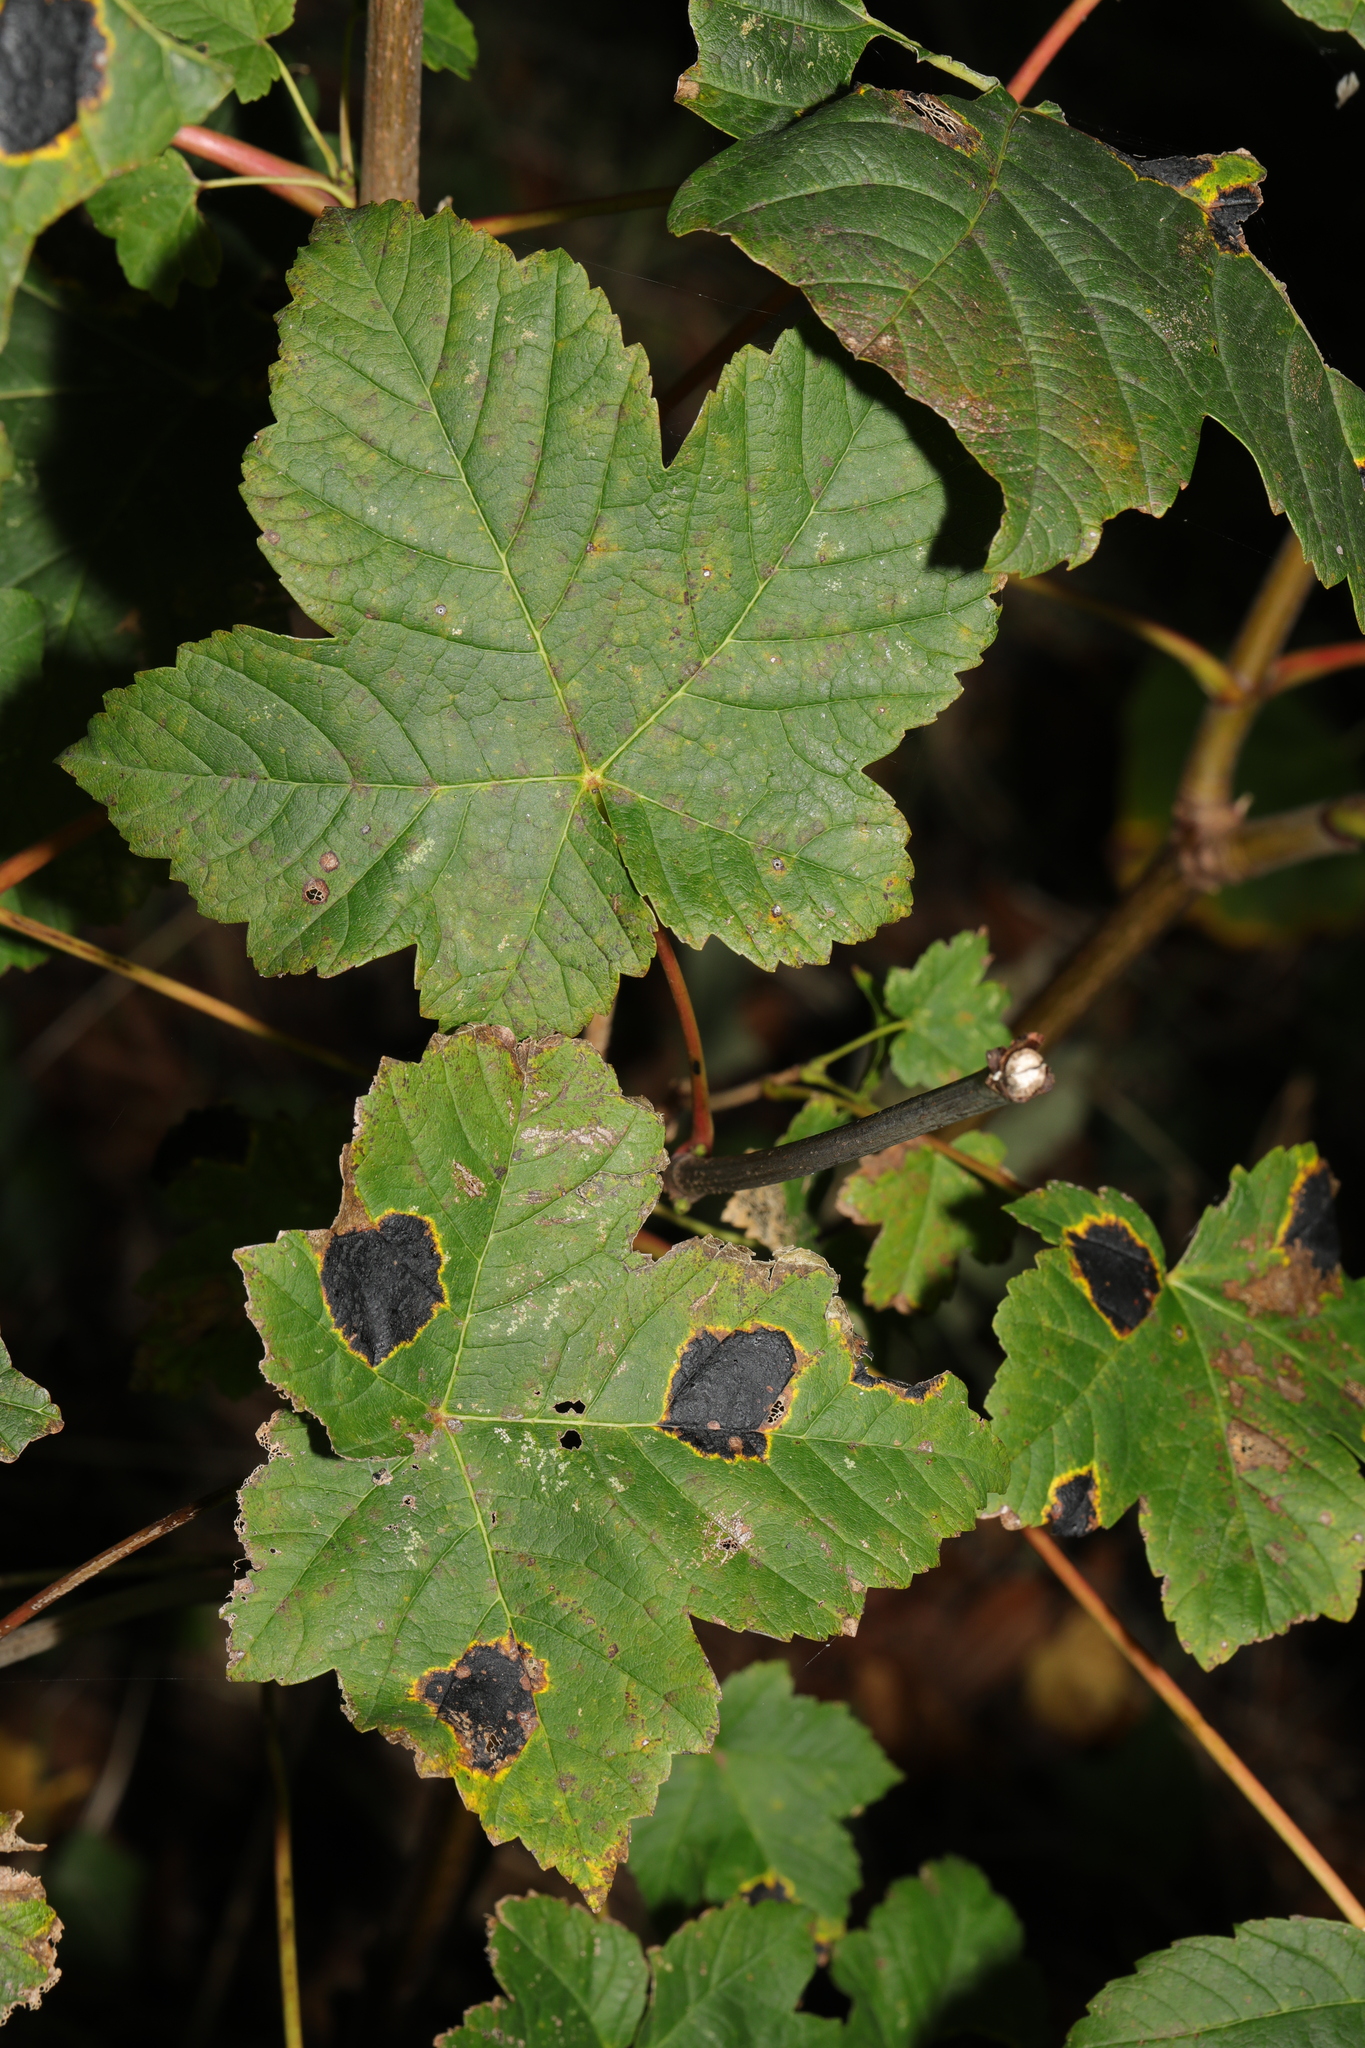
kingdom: Plantae
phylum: Tracheophyta
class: Magnoliopsida
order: Sapindales
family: Sapindaceae
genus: Acer
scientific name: Acer pseudoplatanus
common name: Sycamore
